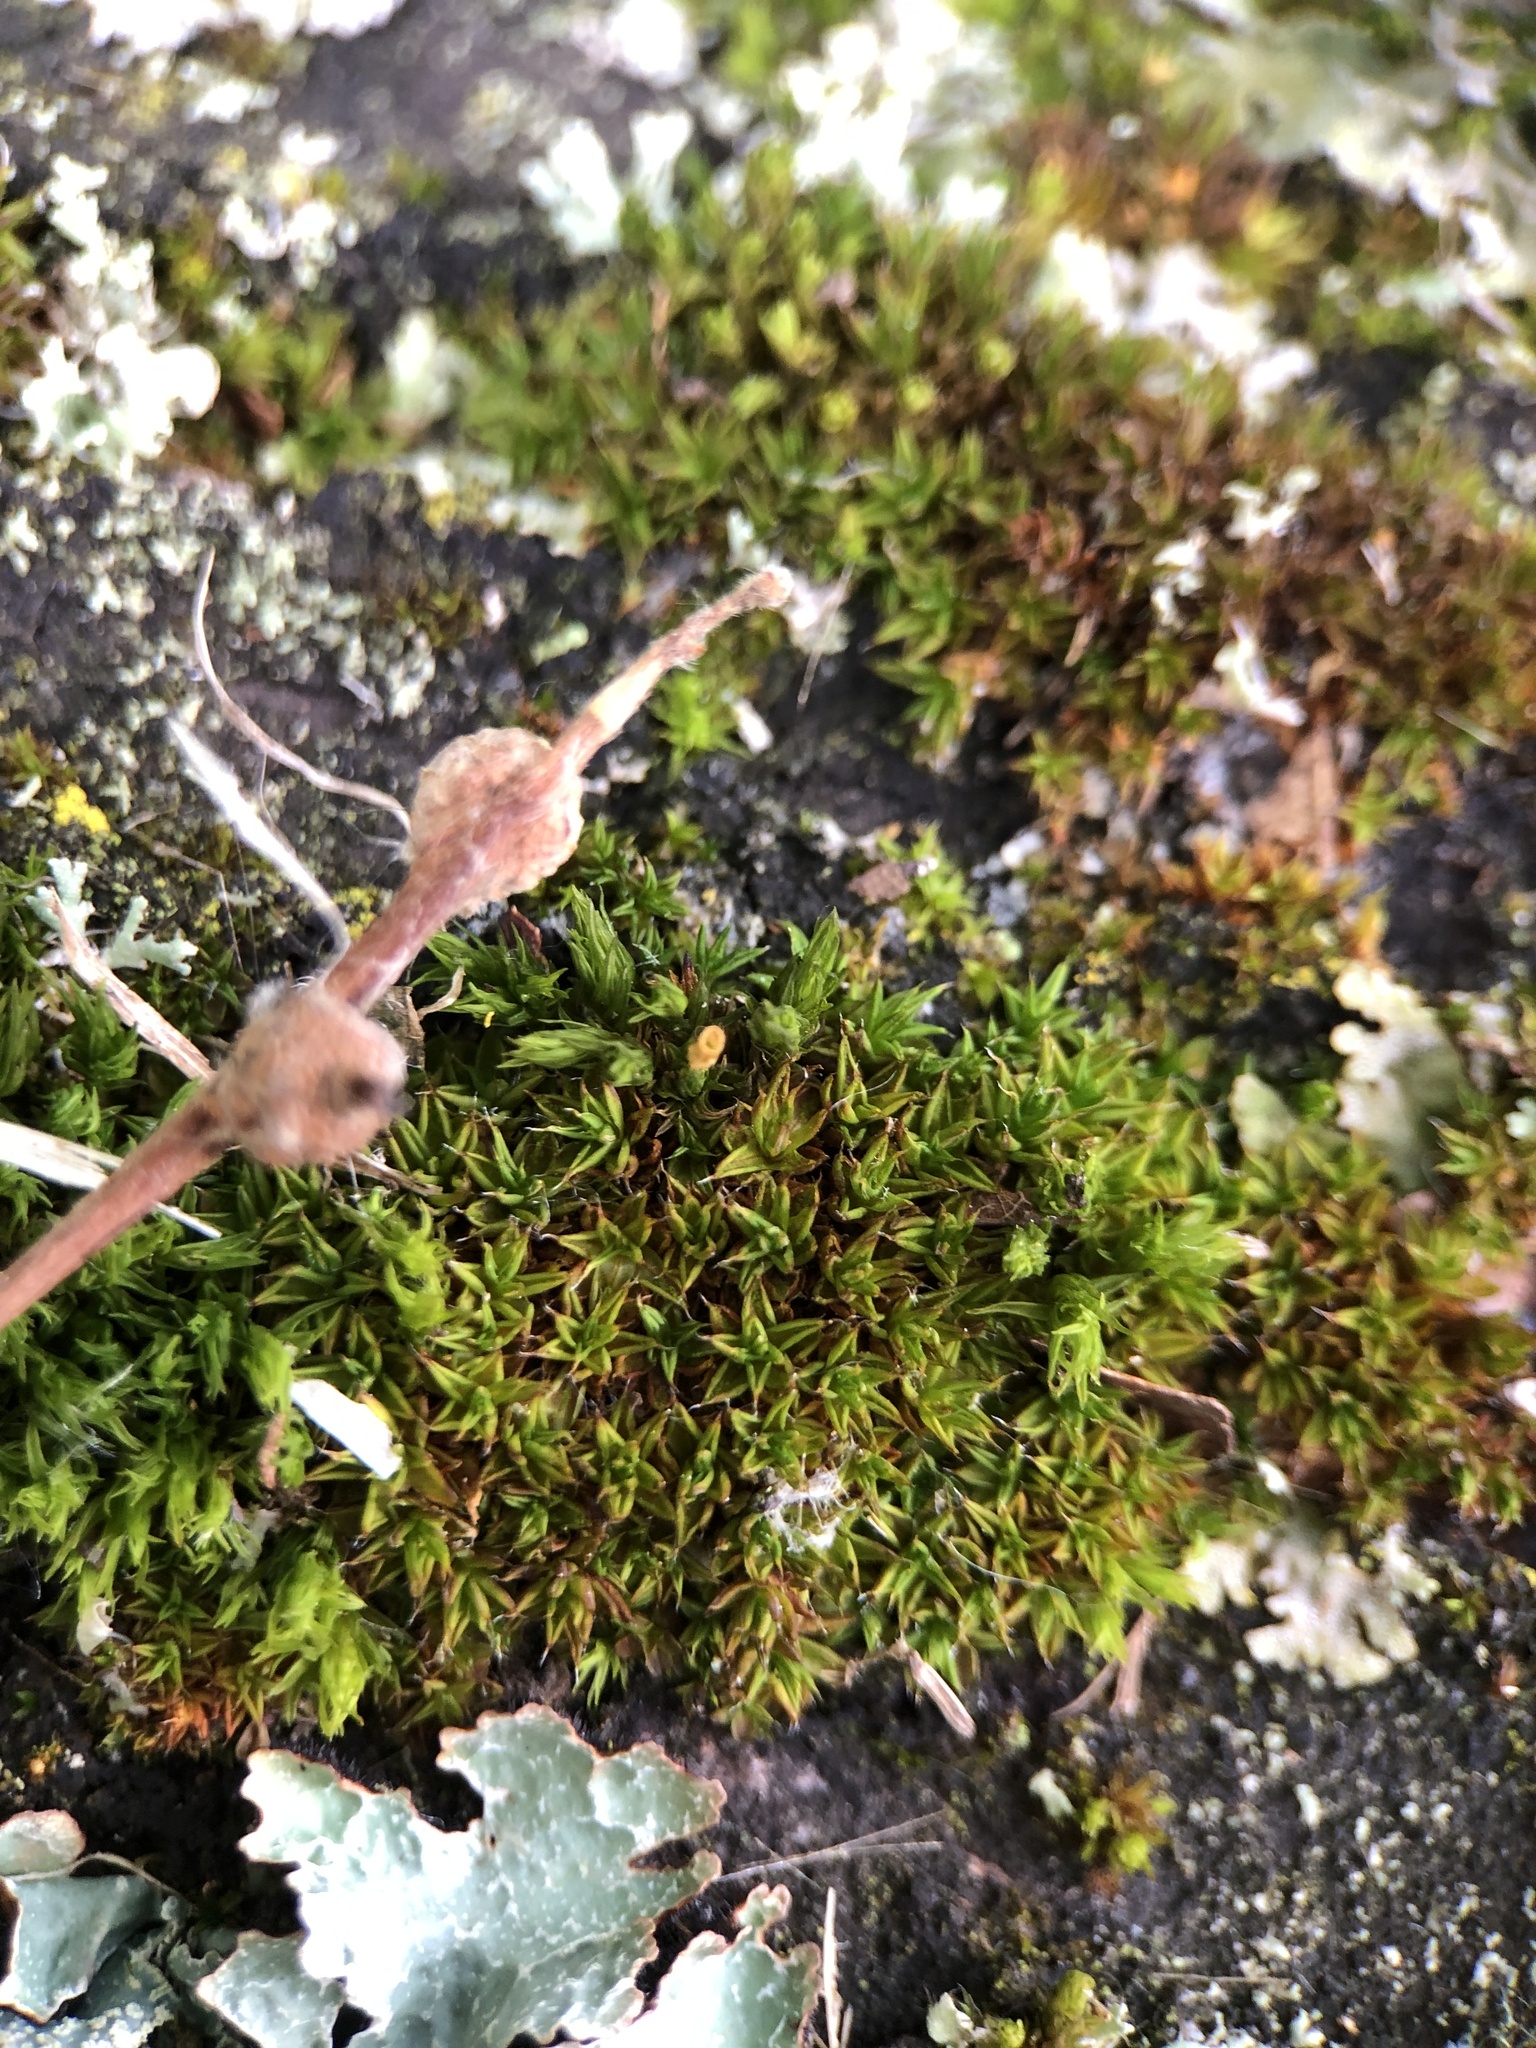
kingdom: Plantae
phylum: Bryophyta
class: Bryopsida
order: Pottiales
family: Pottiaceae
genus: Syntrichia
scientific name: Syntrichia papillosa
